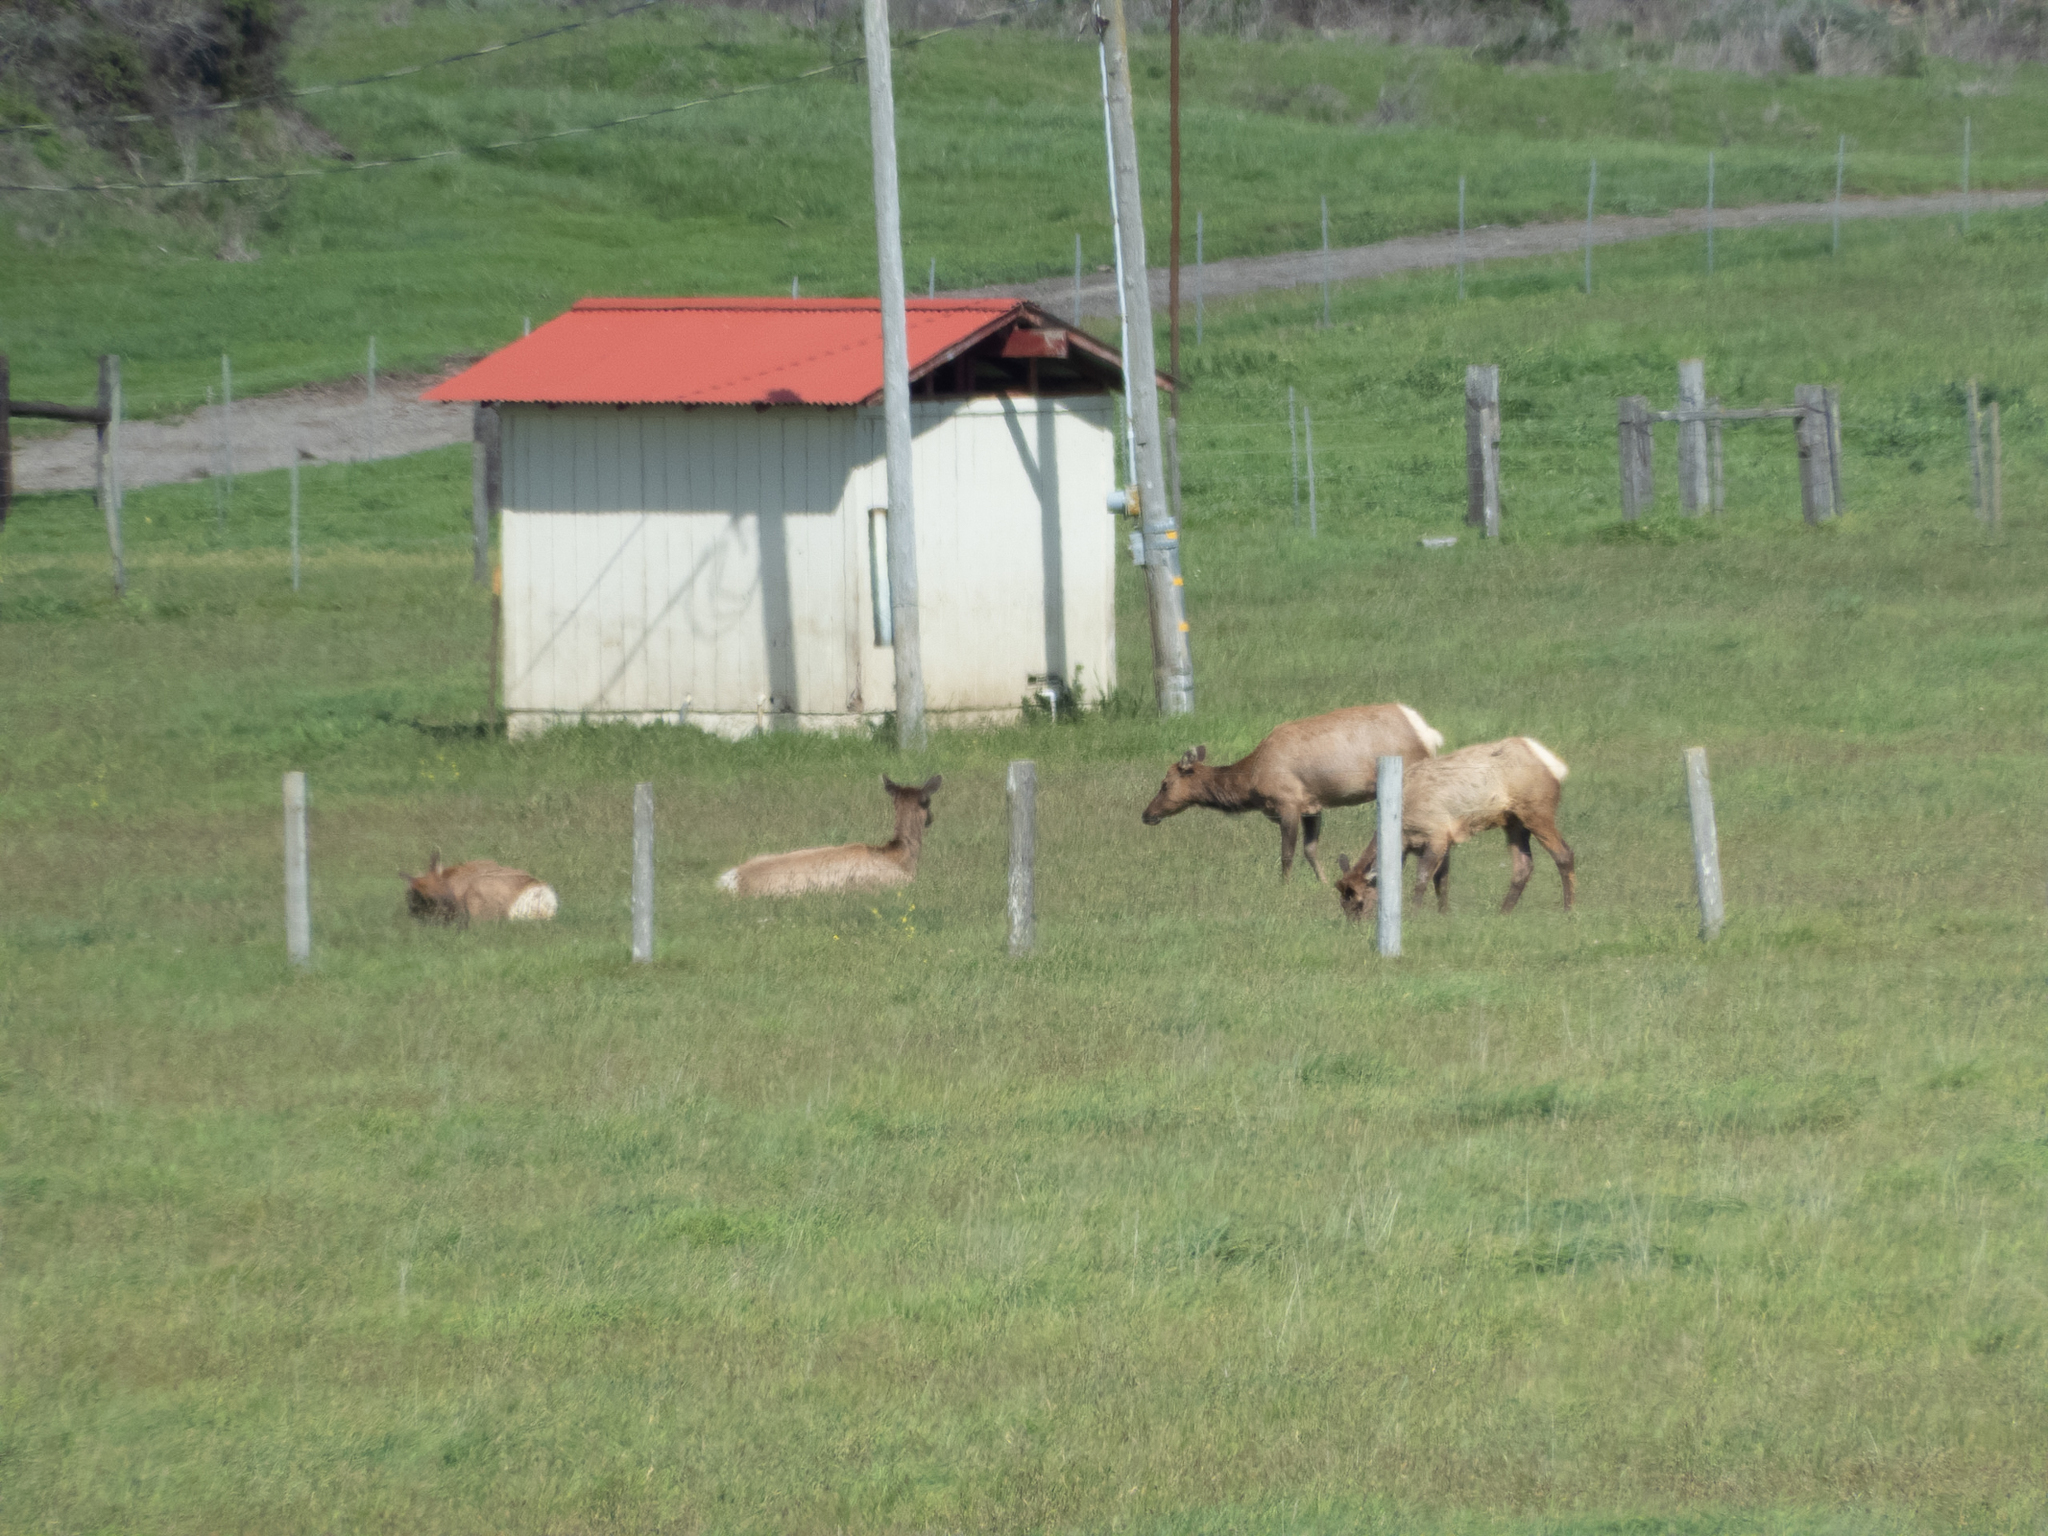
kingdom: Animalia
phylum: Chordata
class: Mammalia
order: Artiodactyla
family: Cervidae
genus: Cervus
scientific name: Cervus elaphus
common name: Red deer
